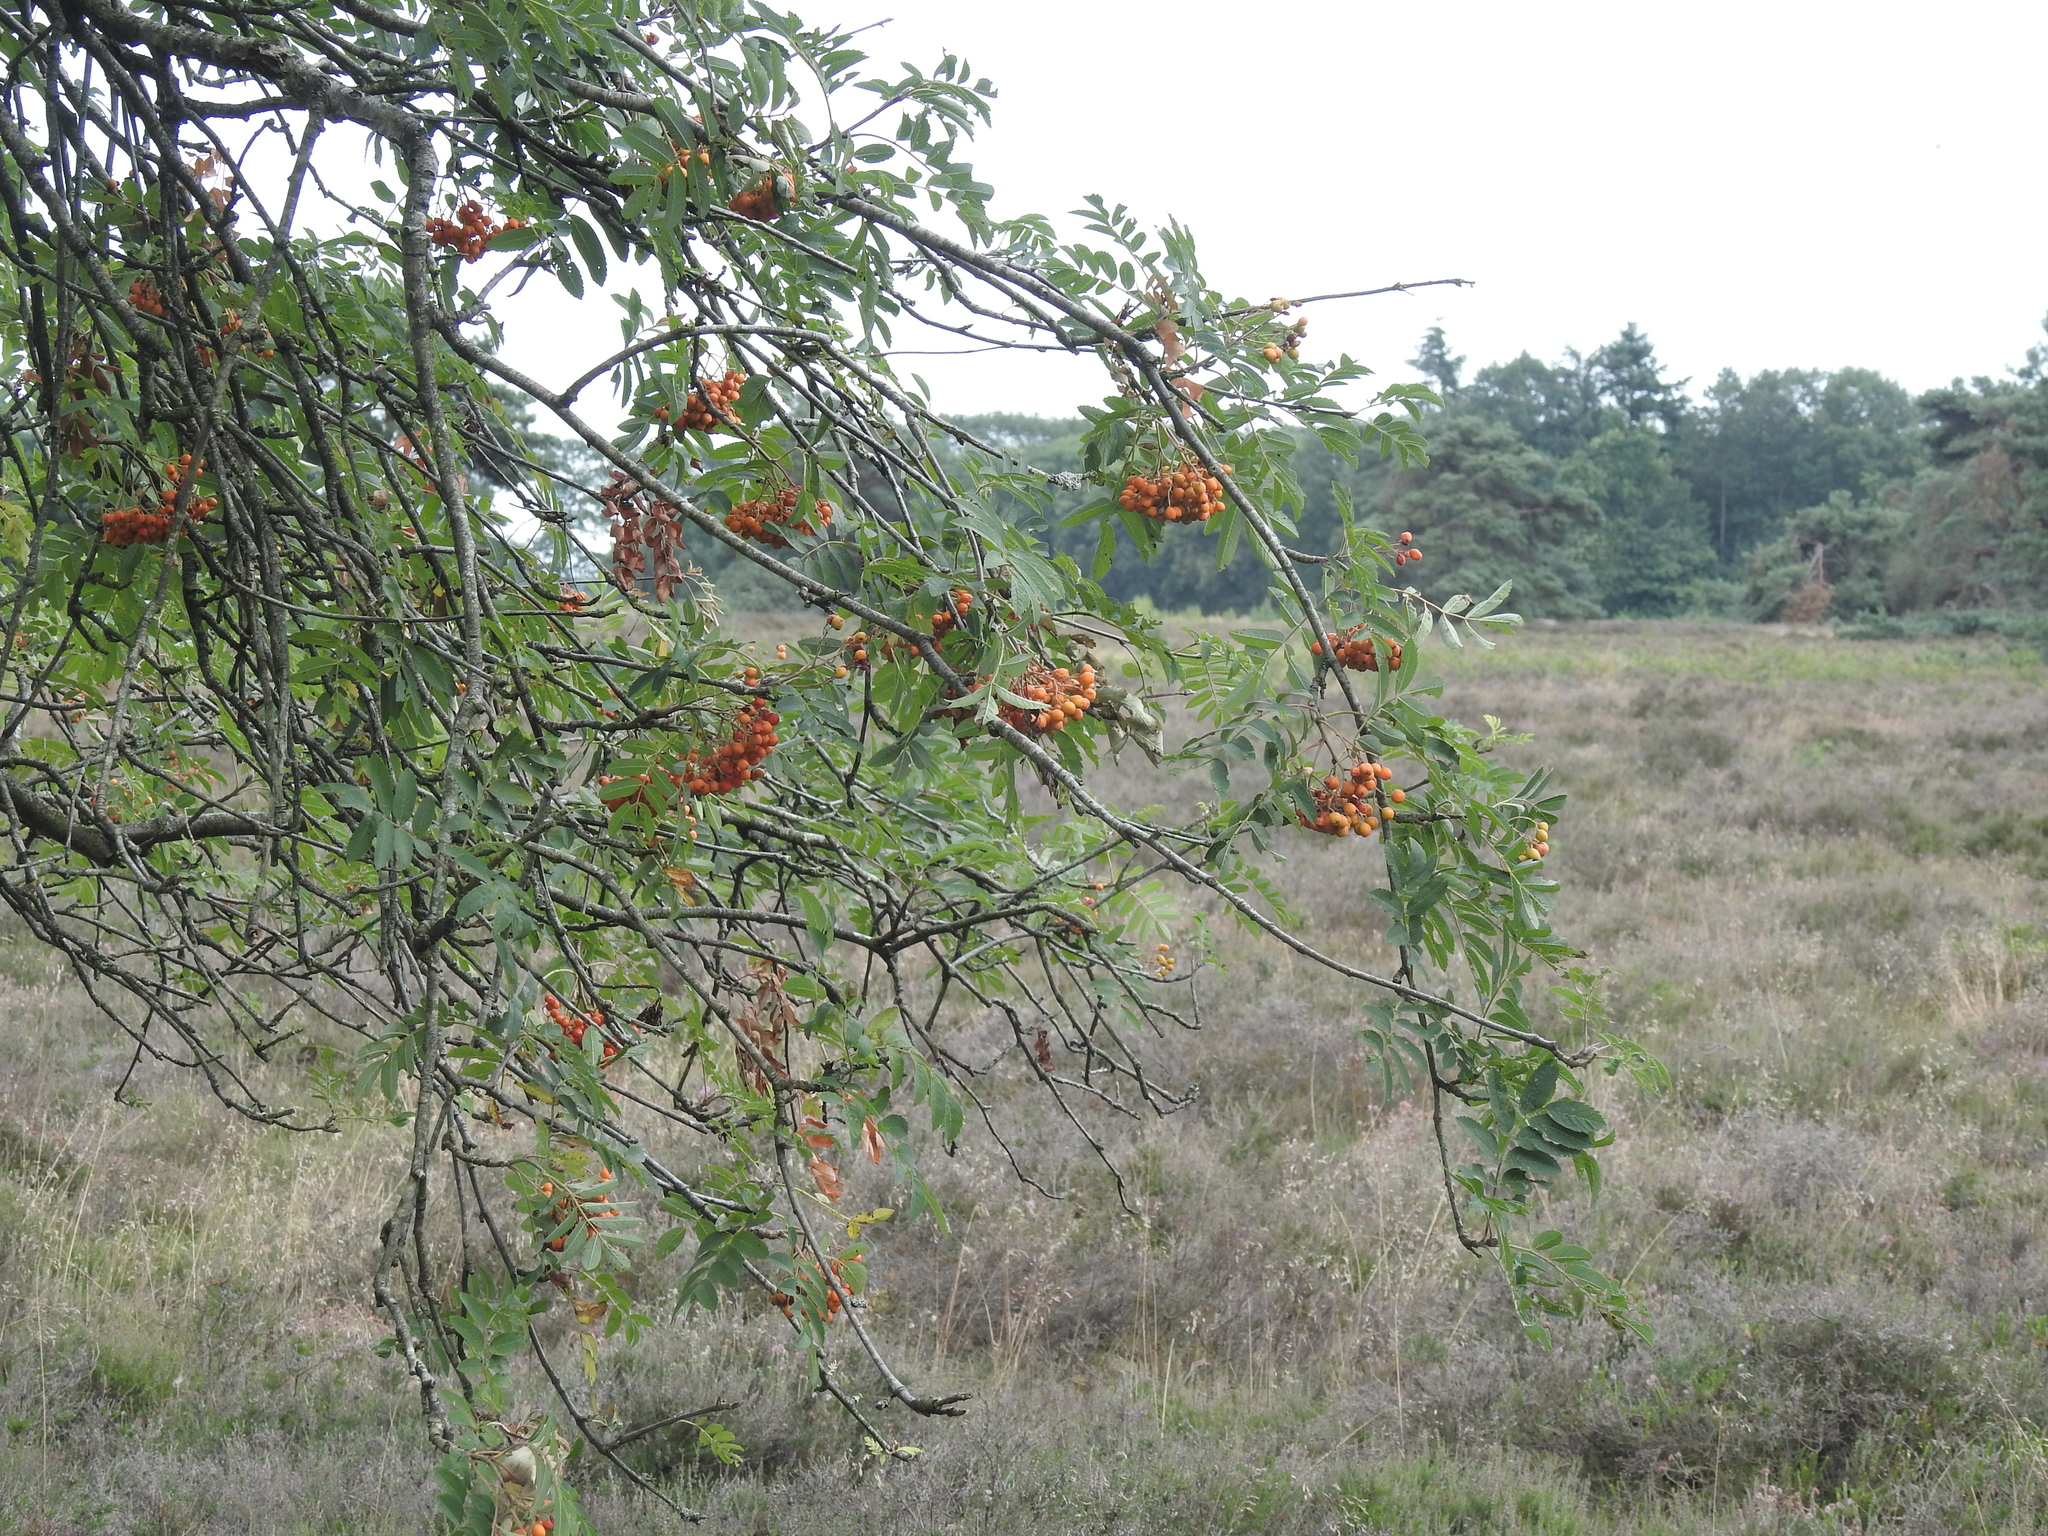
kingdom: Plantae
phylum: Tracheophyta
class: Magnoliopsida
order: Rosales
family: Rosaceae
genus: Sorbus
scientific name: Sorbus aucuparia
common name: Rowan
